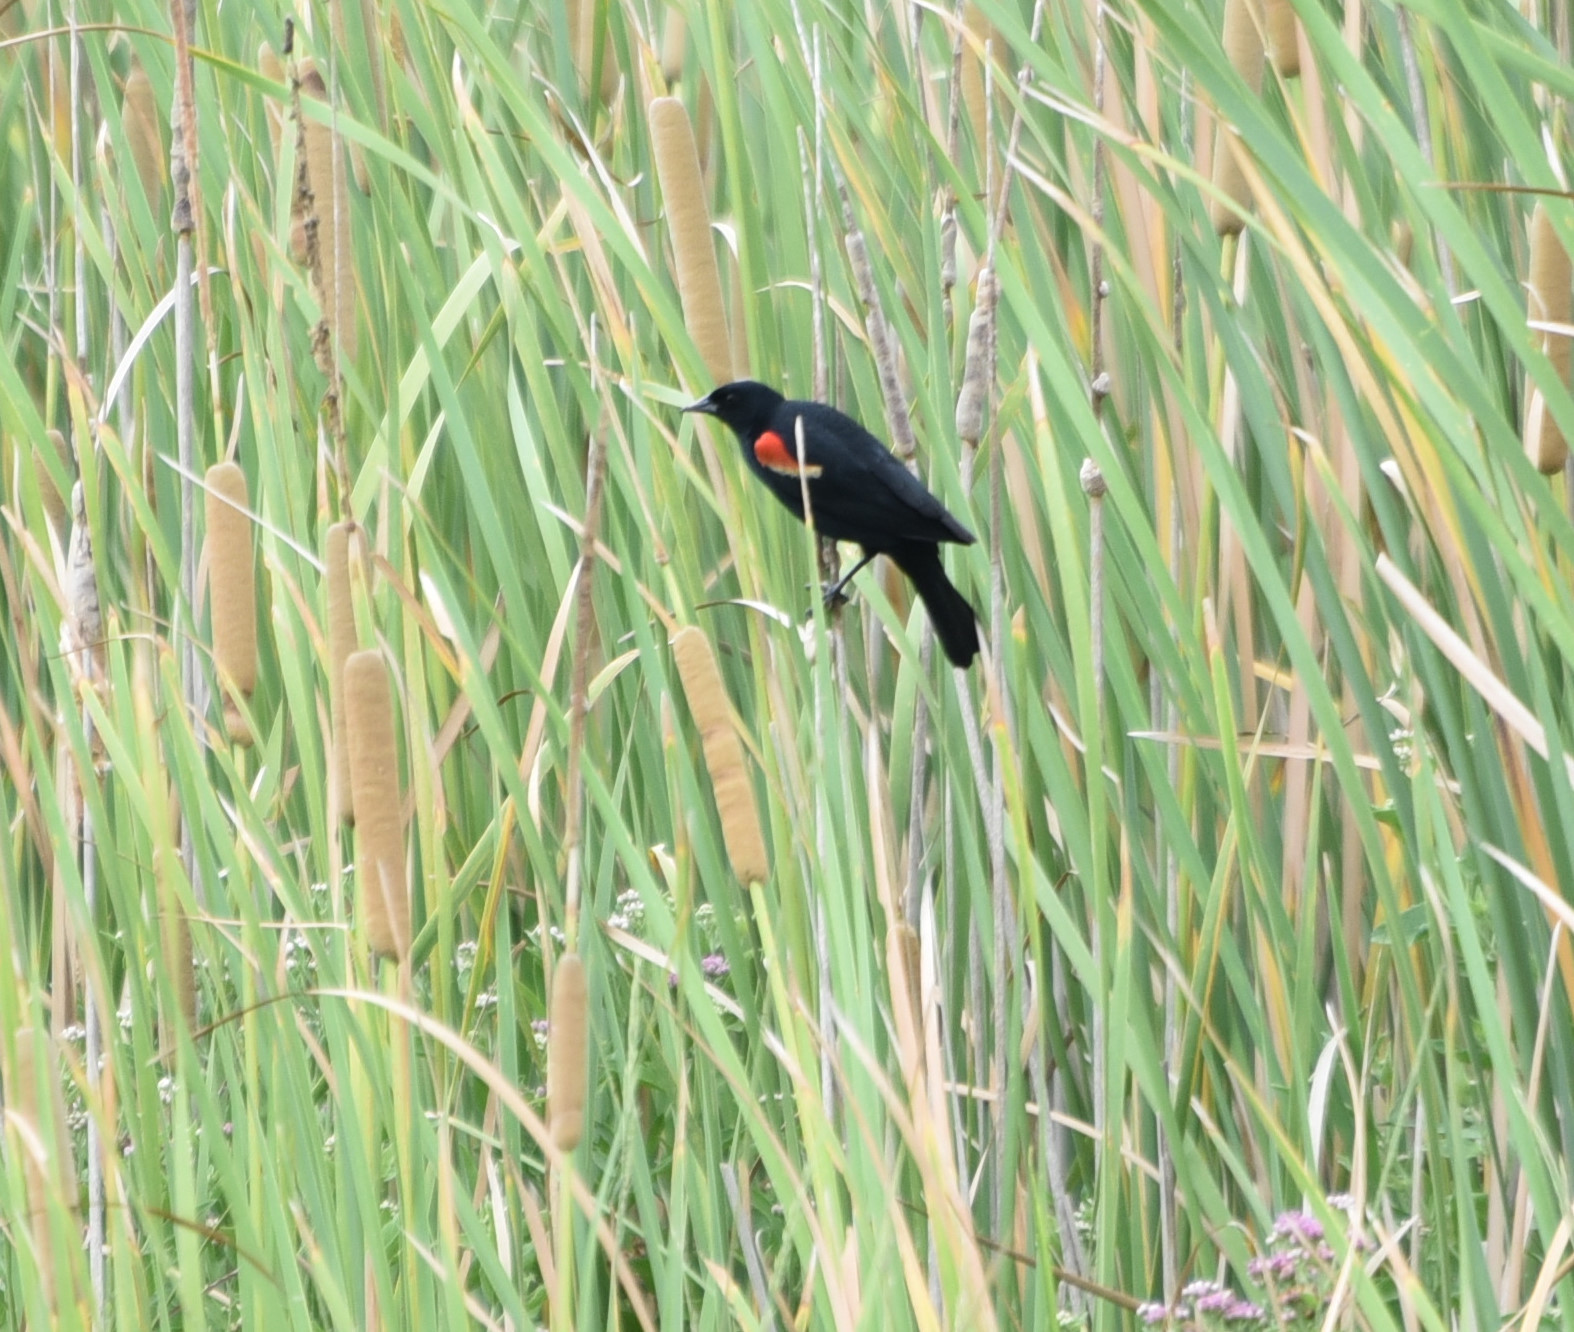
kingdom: Animalia
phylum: Chordata
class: Aves
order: Passeriformes
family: Icteridae
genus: Agelaius
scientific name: Agelaius phoeniceus
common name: Red-winged blackbird
